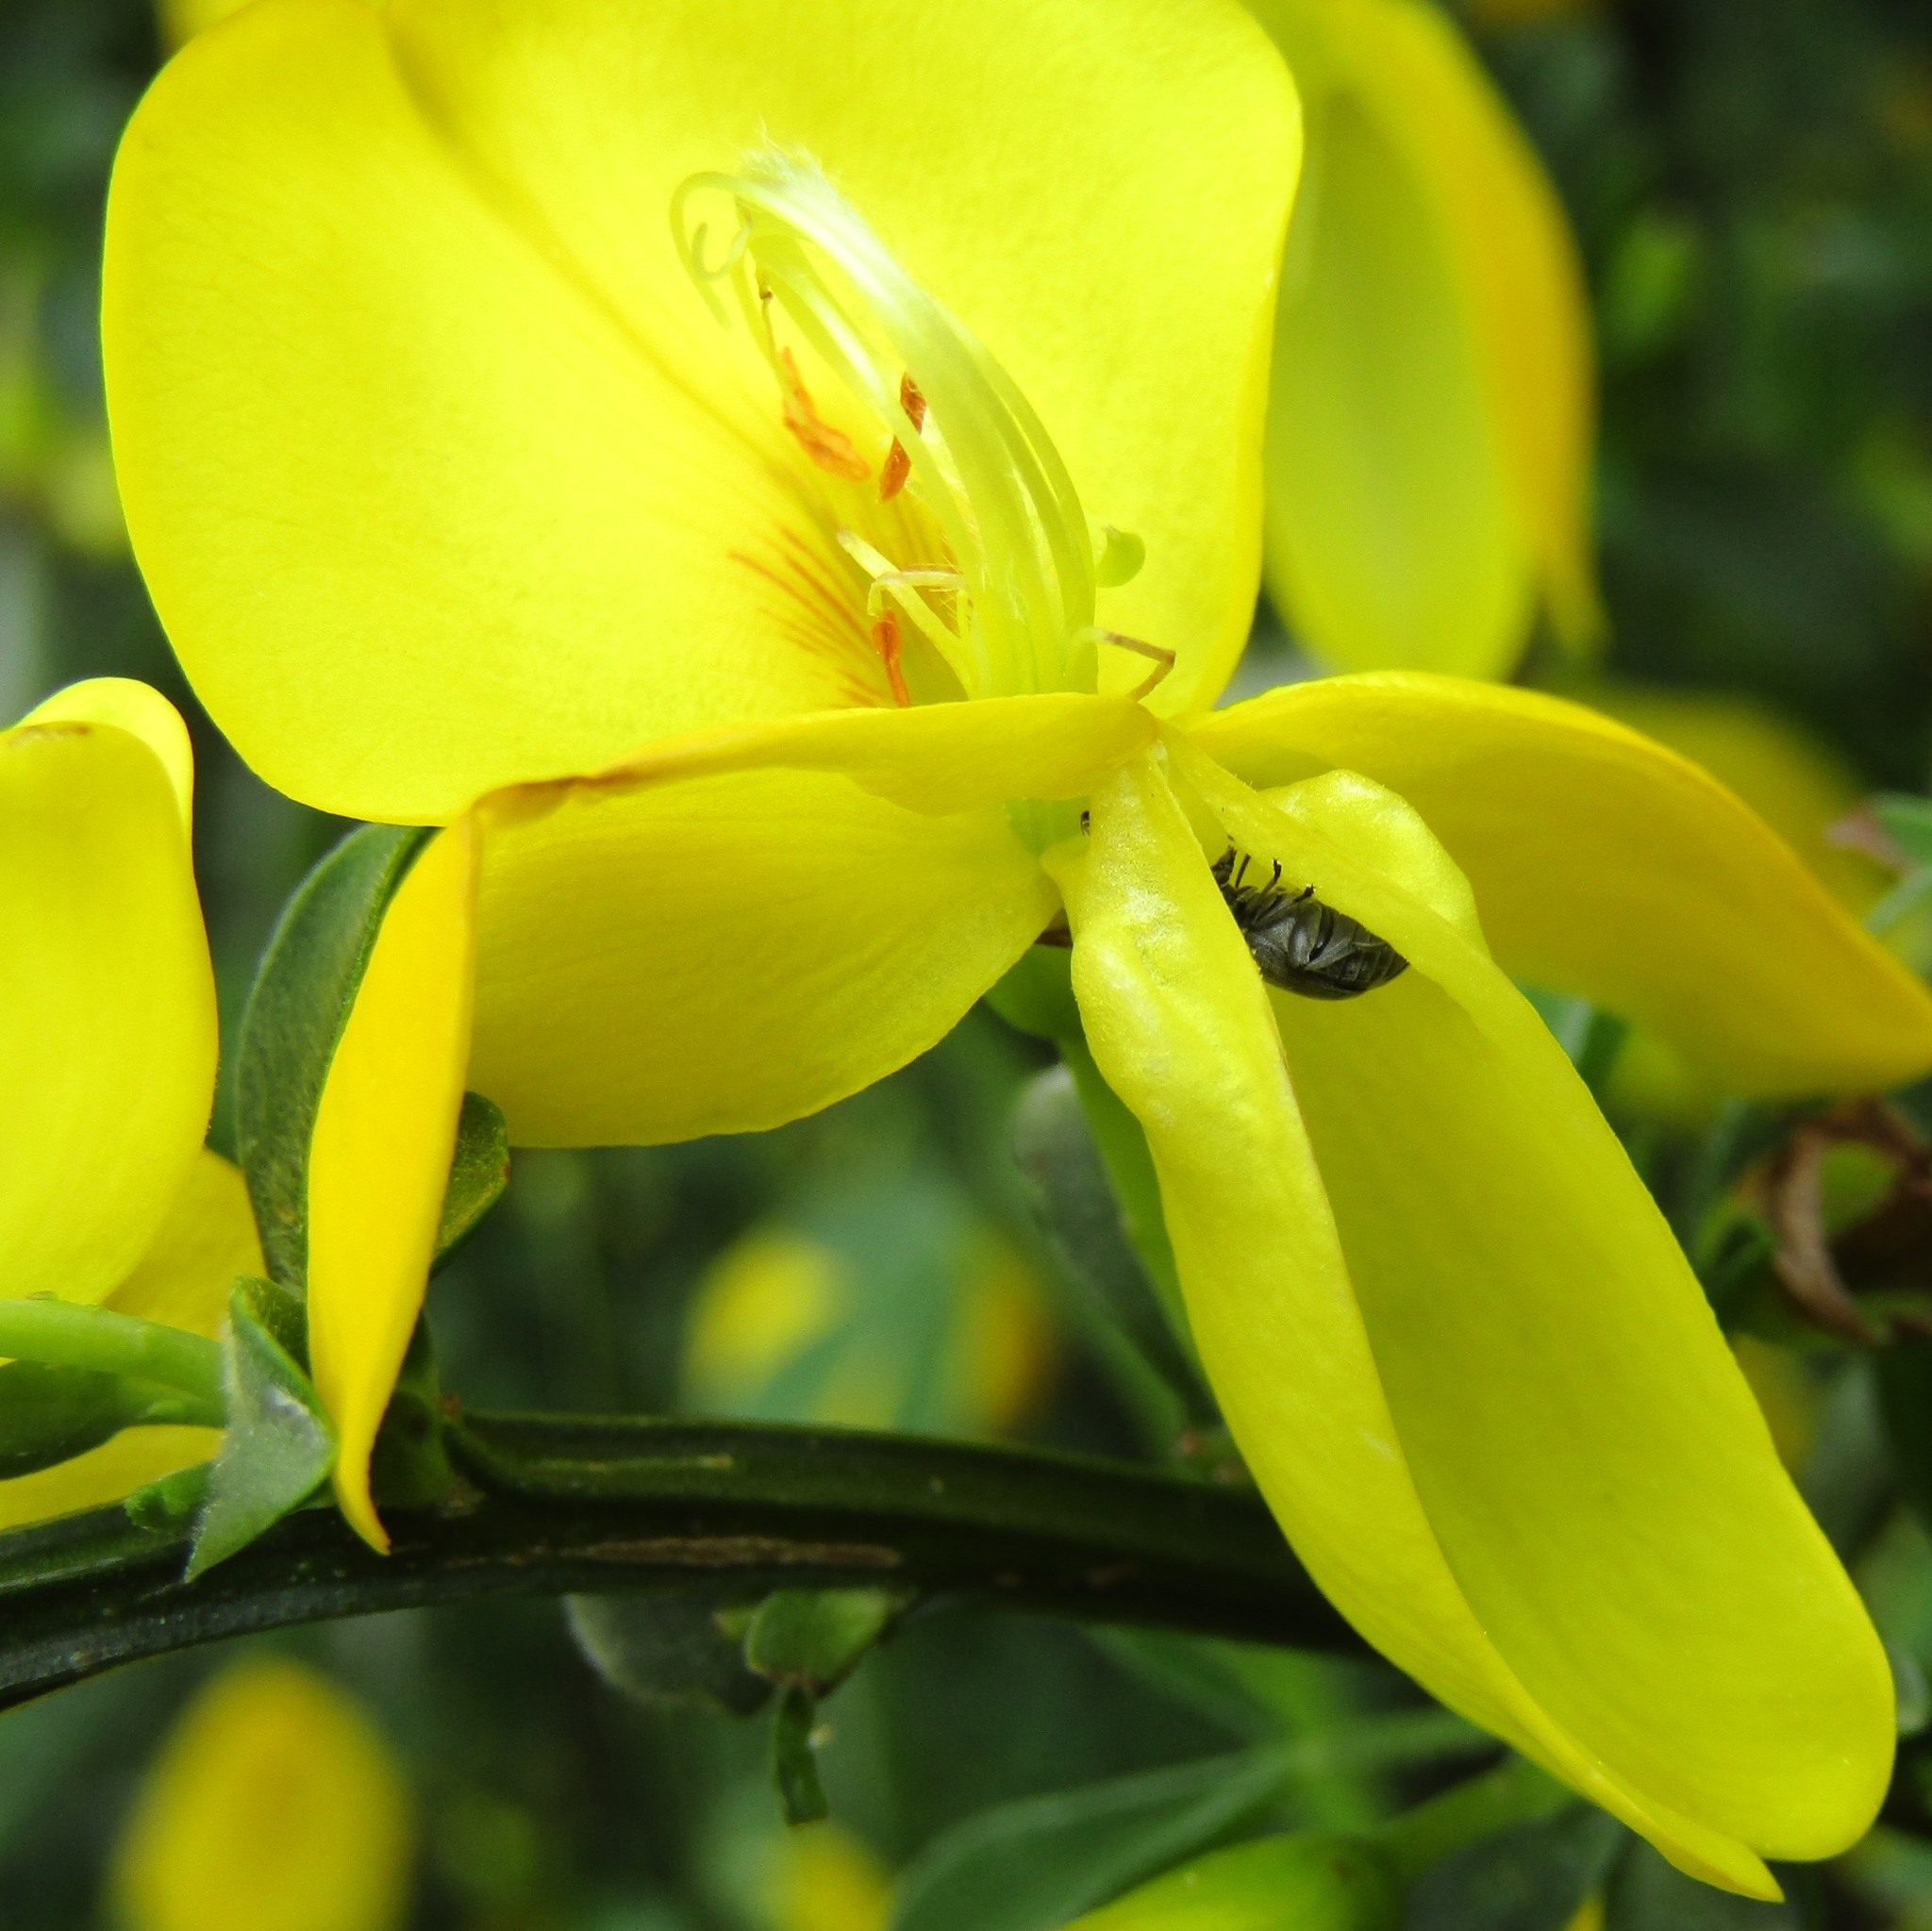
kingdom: Plantae
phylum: Tracheophyta
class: Magnoliopsida
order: Fabales
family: Fabaceae
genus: Cytisus
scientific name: Cytisus scoparius
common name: Scotch broom
